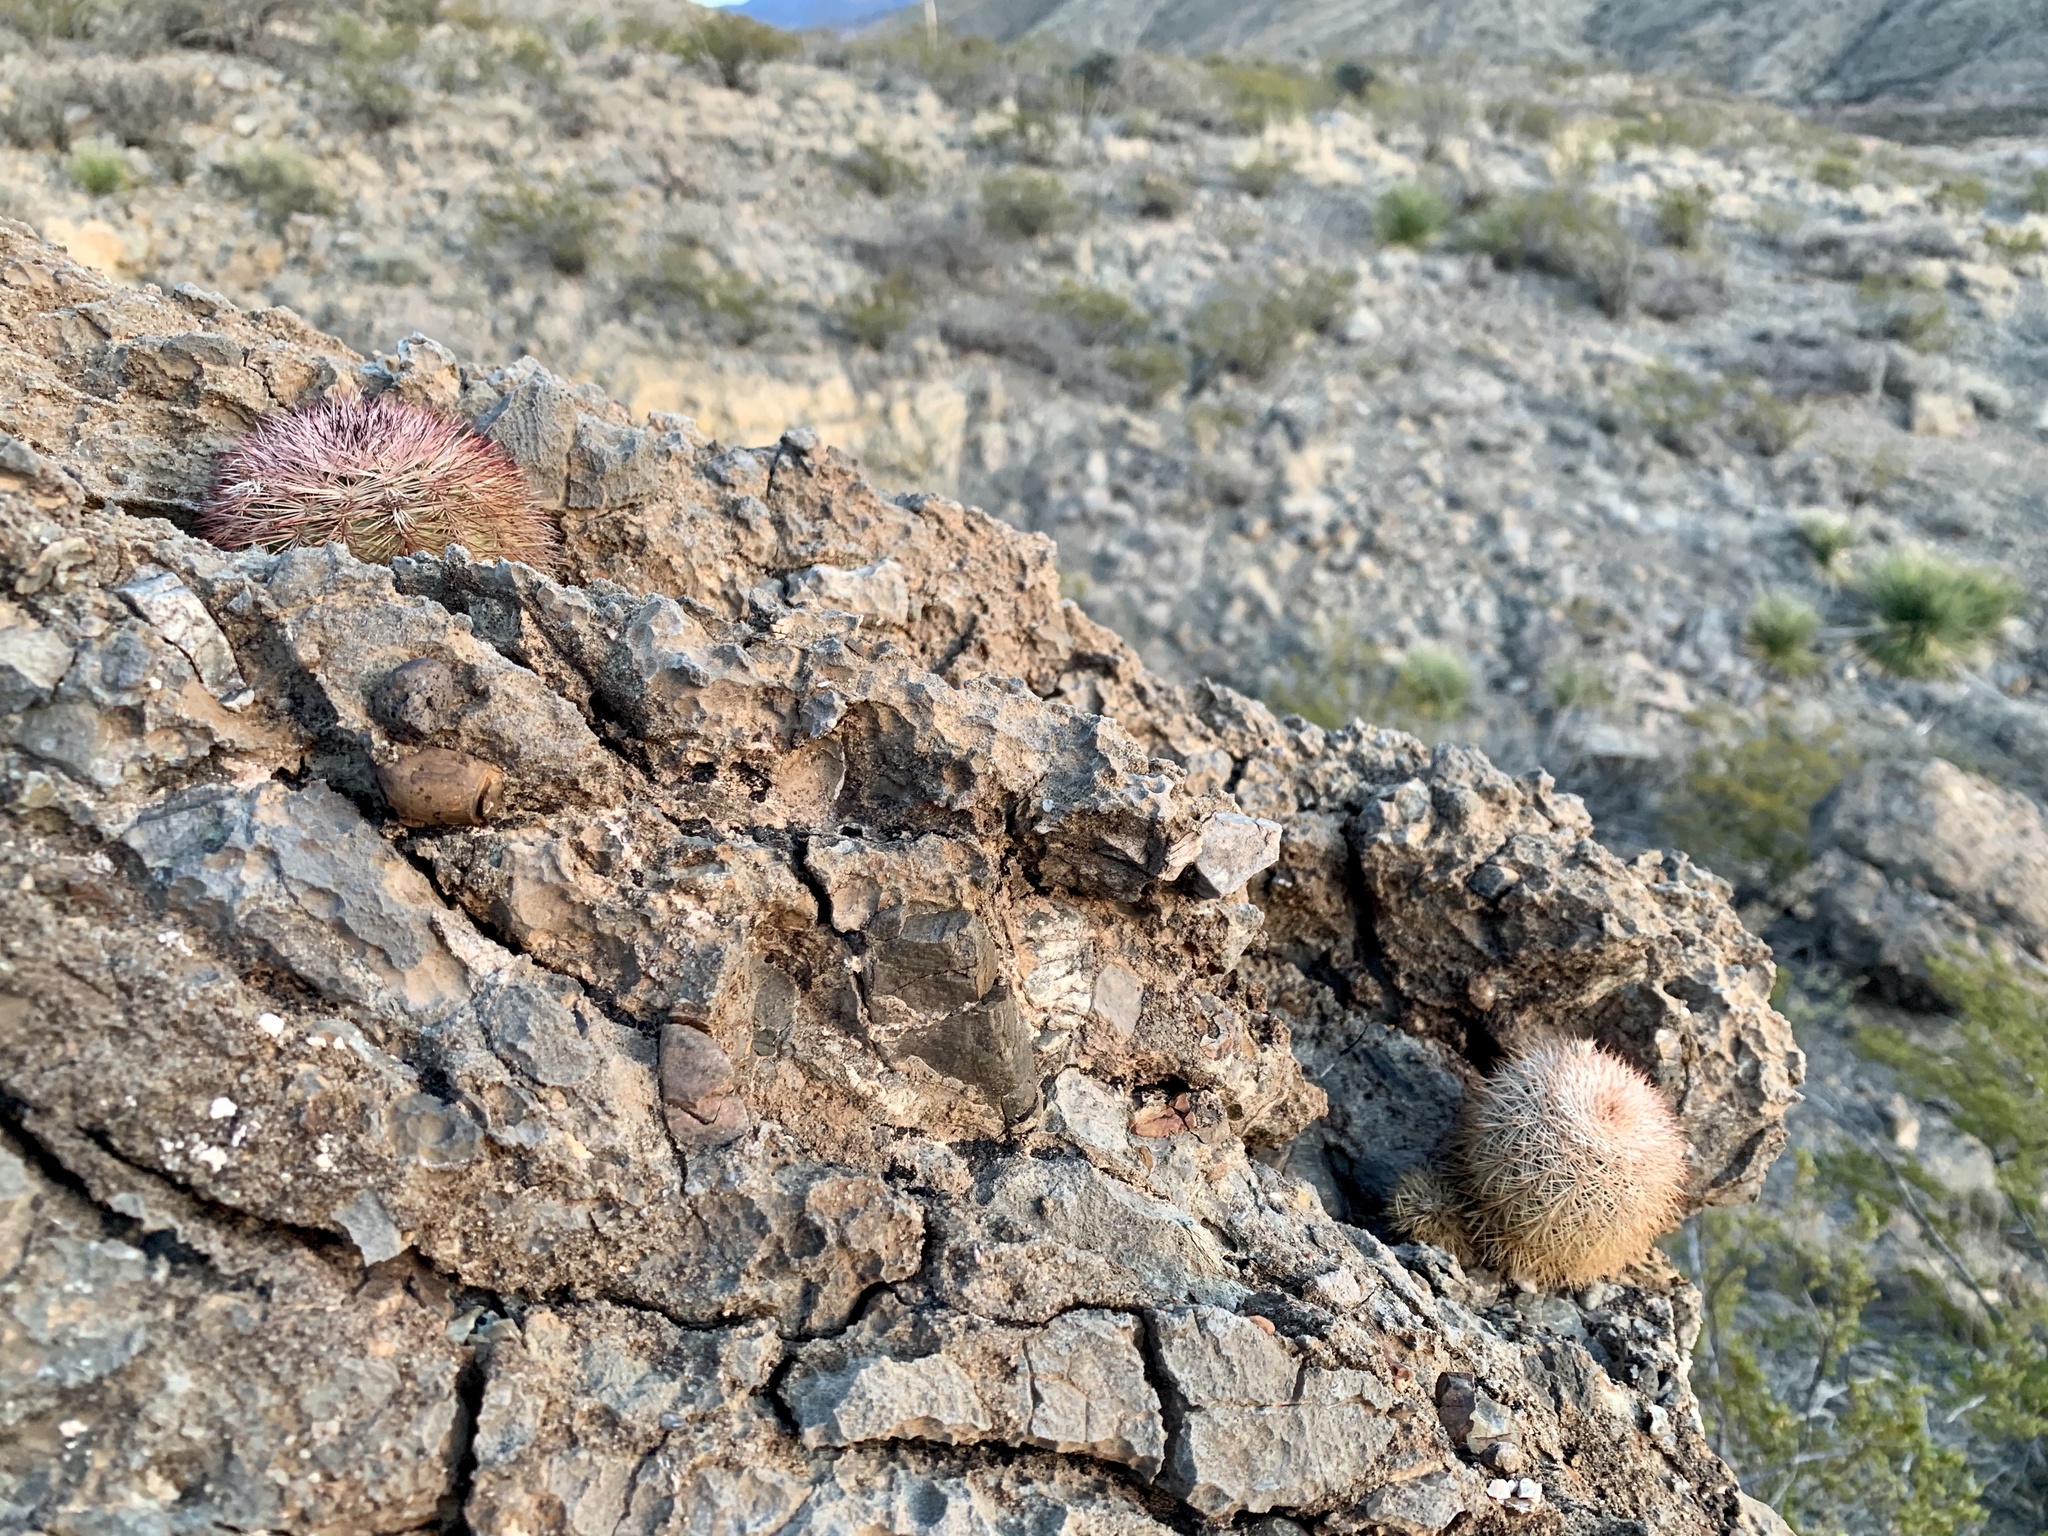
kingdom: Plantae
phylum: Tracheophyta
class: Magnoliopsida
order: Caryophyllales
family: Cactaceae
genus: Echinocereus
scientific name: Echinocereus dasyacanthus
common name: Spiny hedgehog cactus
